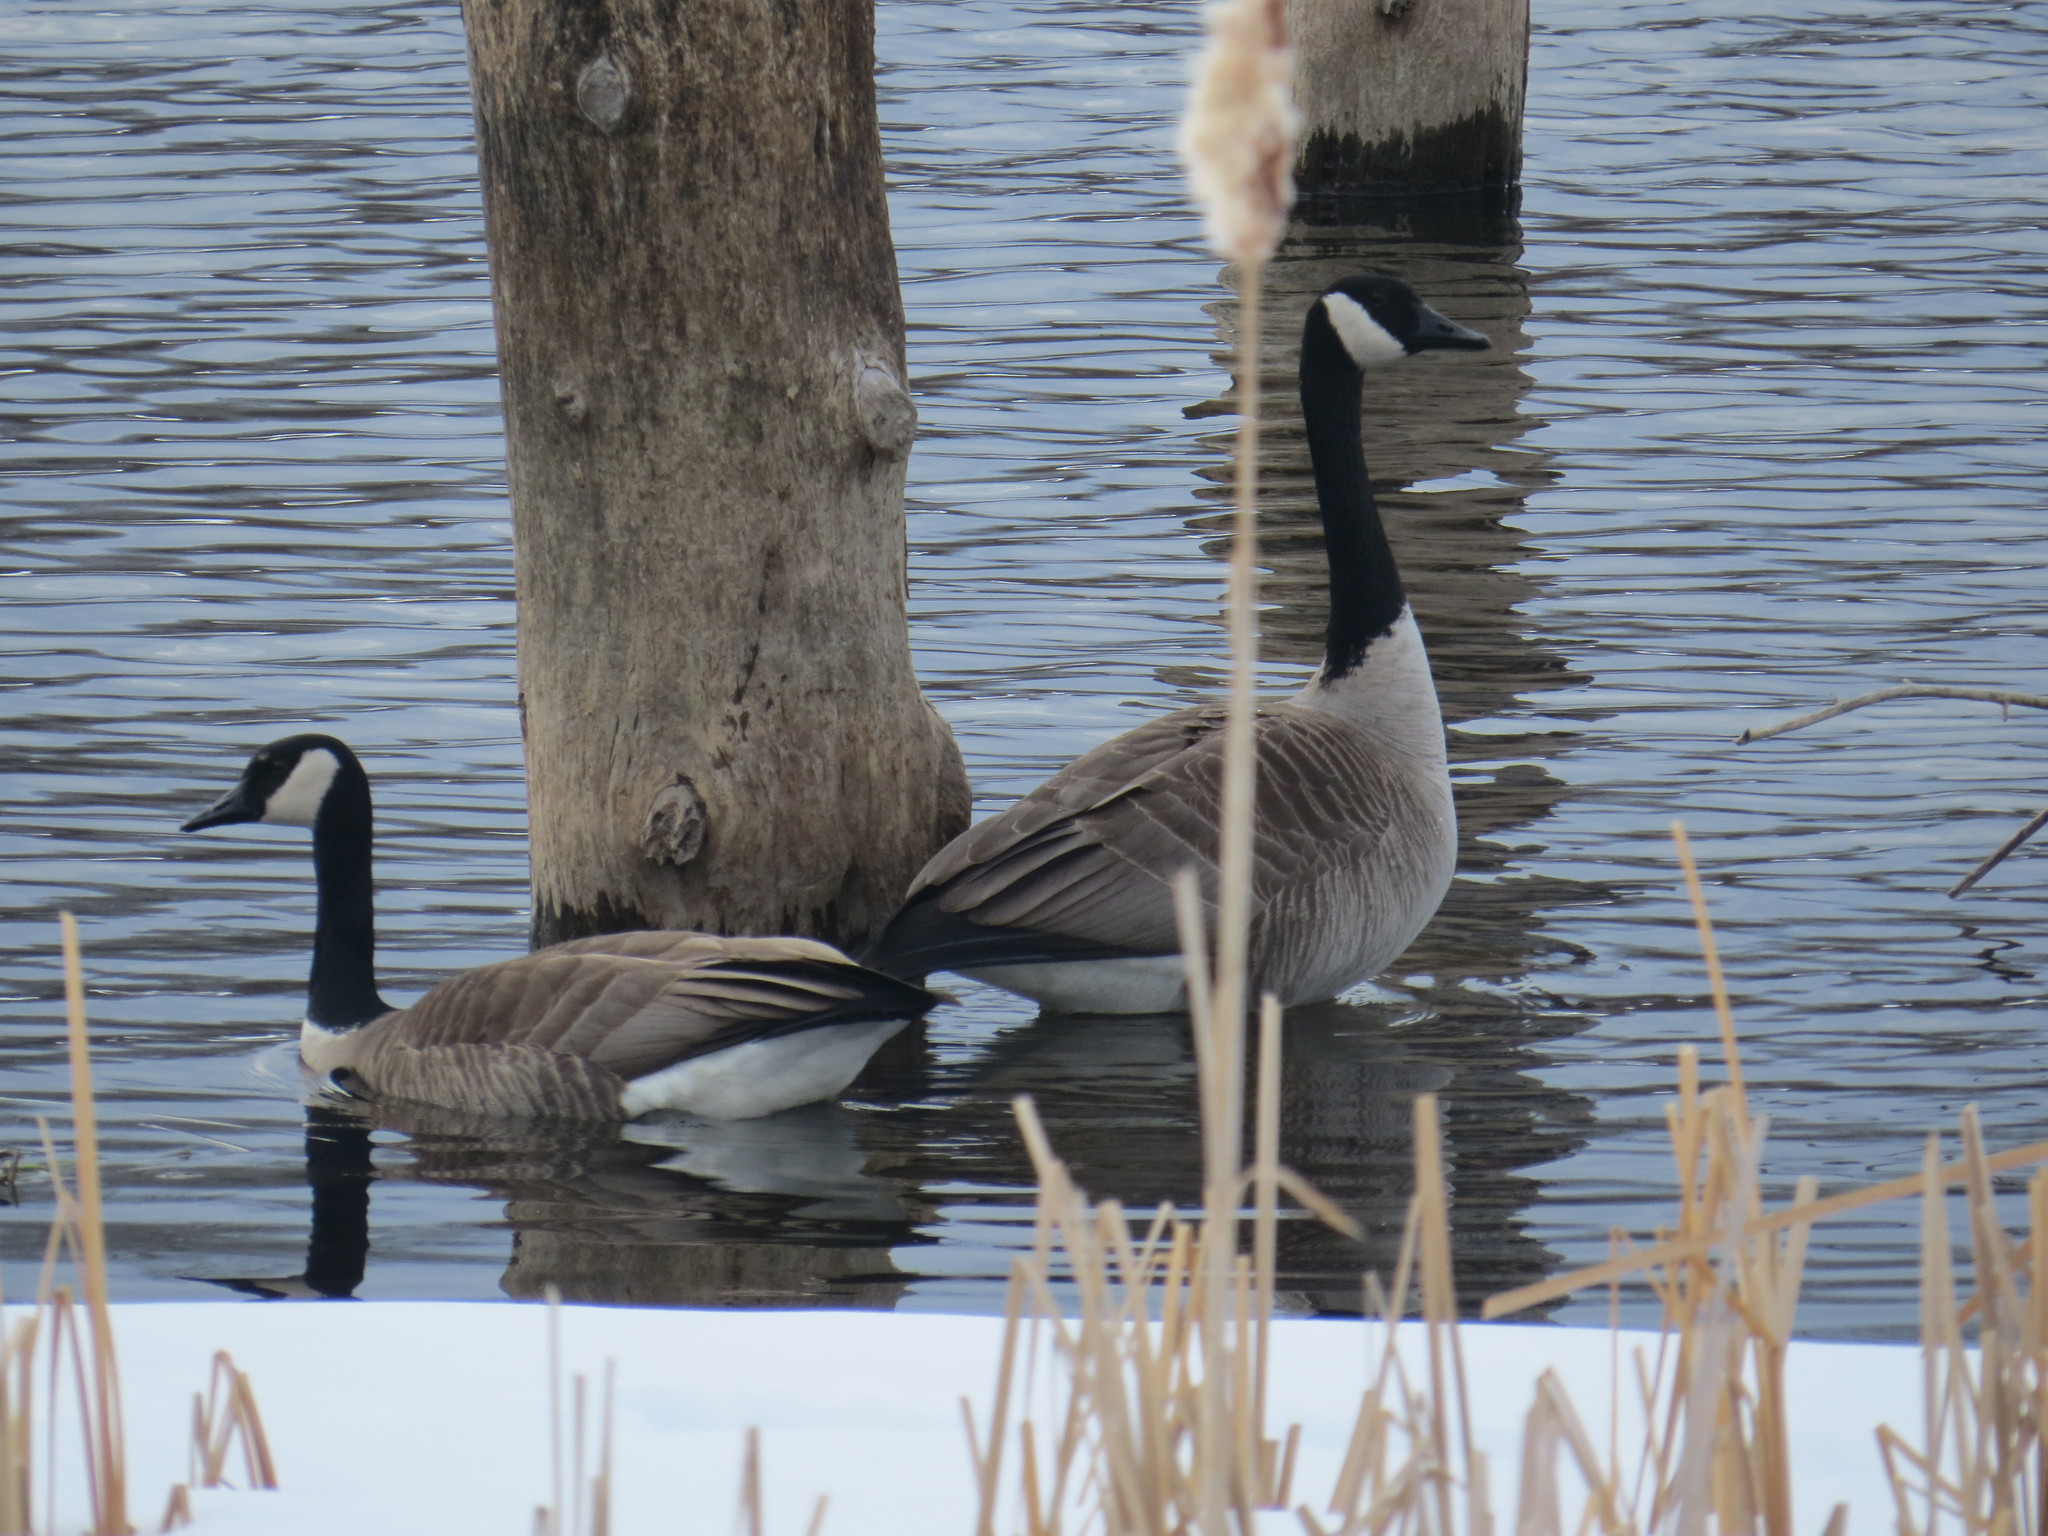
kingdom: Animalia
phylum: Chordata
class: Aves
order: Anseriformes
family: Anatidae
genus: Branta
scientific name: Branta canadensis
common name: Canada goose
